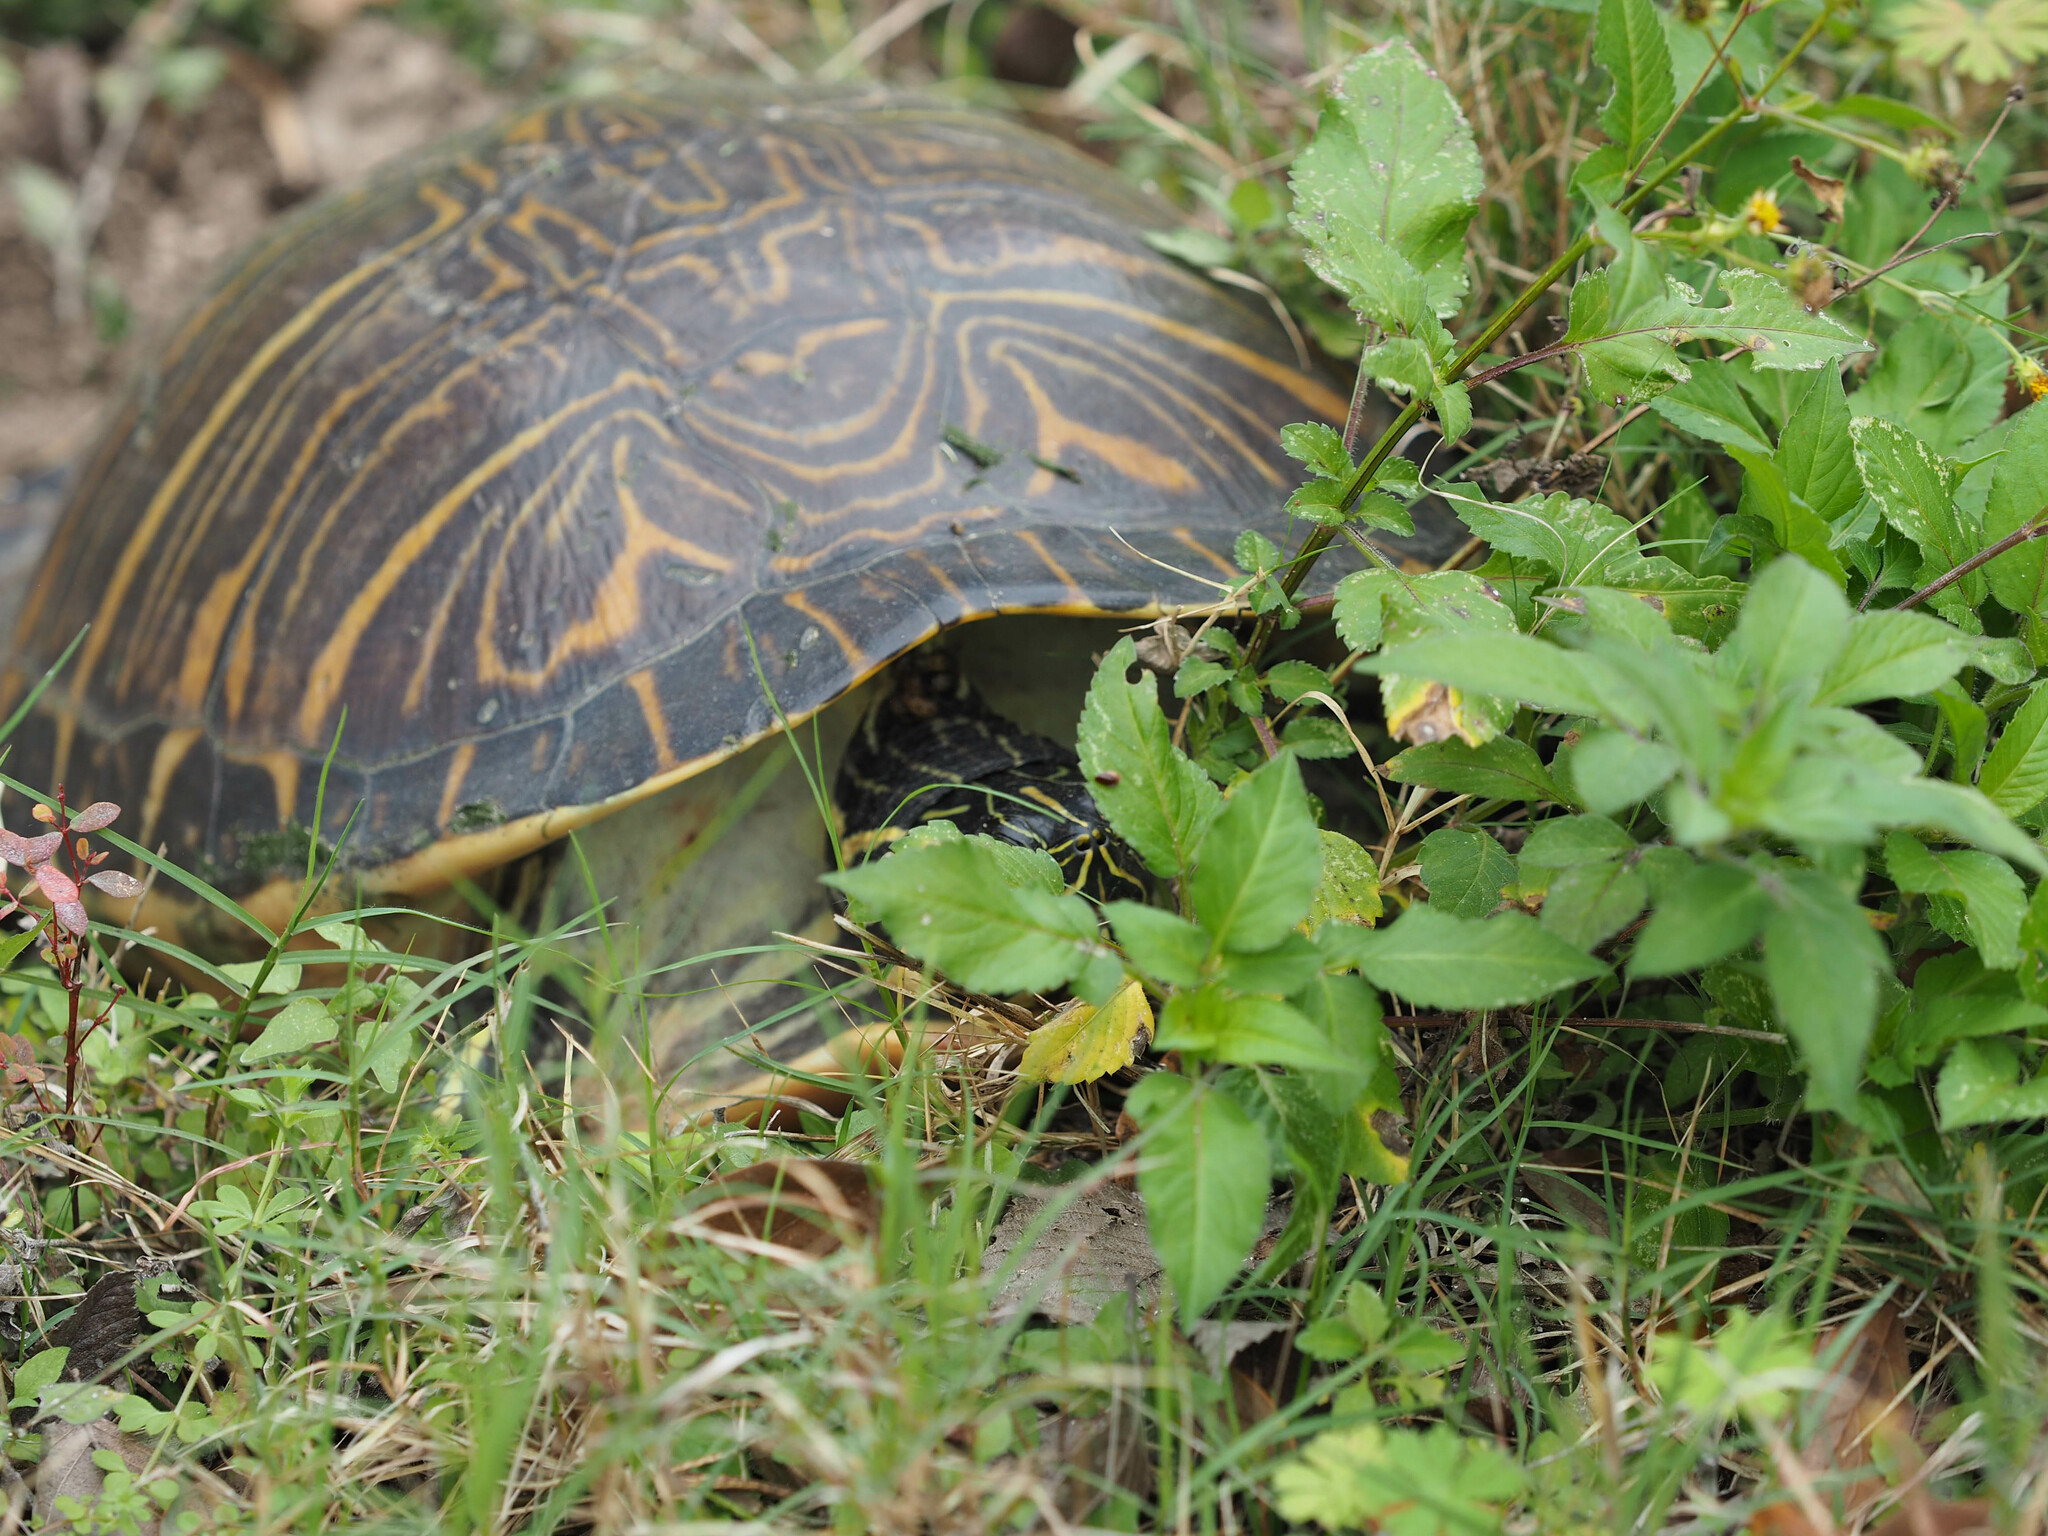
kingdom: Animalia
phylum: Chordata
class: Testudines
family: Emydidae
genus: Pseudemys
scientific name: Pseudemys peninsularis
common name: Peninsula cooter
